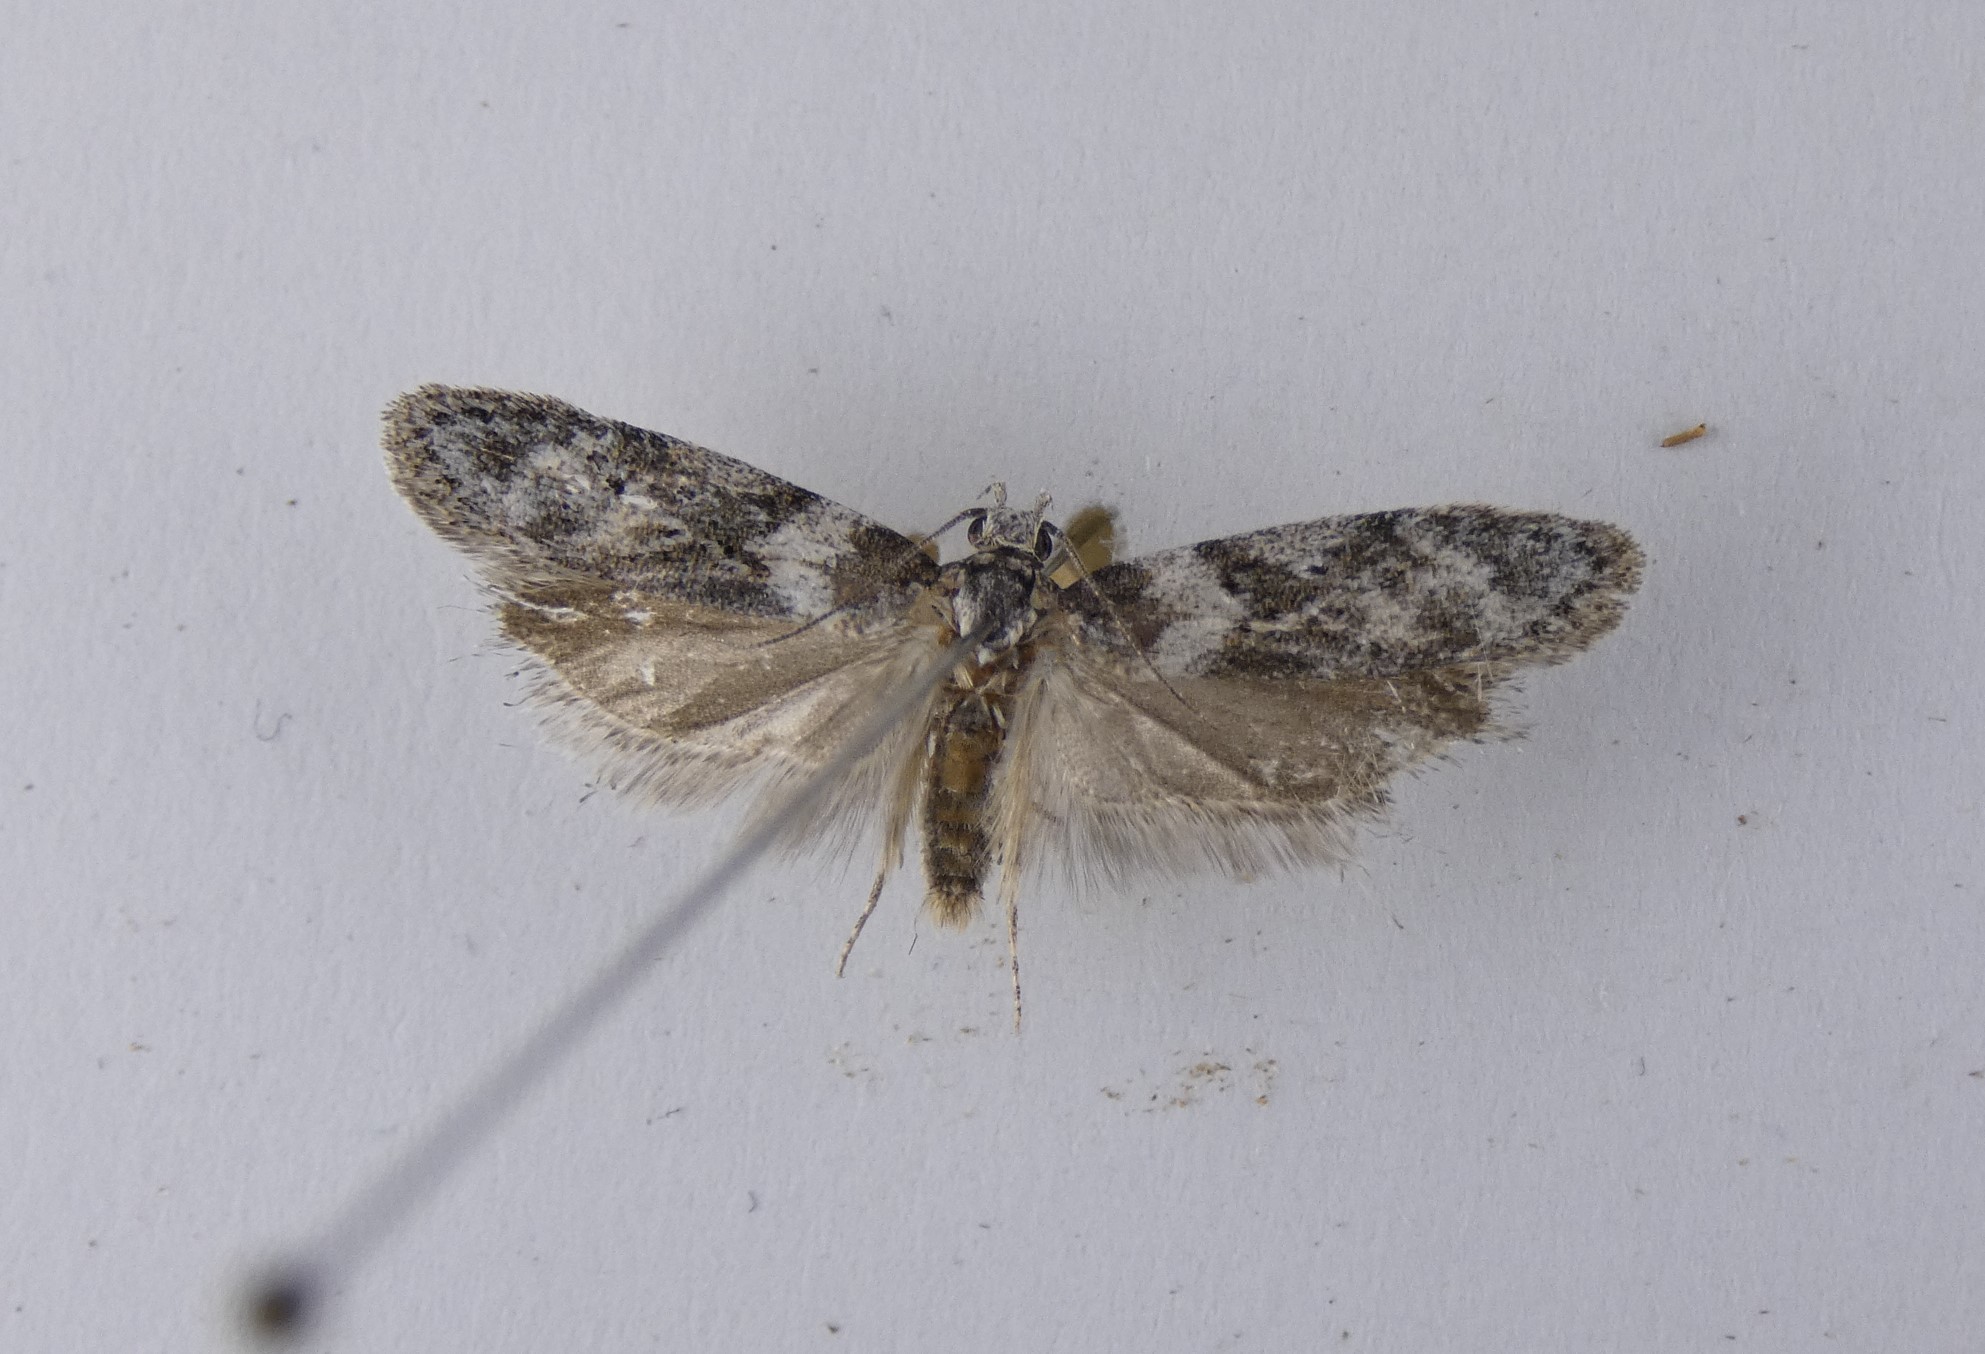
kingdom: Animalia
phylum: Arthropoda
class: Insecta
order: Lepidoptera
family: Oecophoridae
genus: Izatha
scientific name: Izatha convulsella
